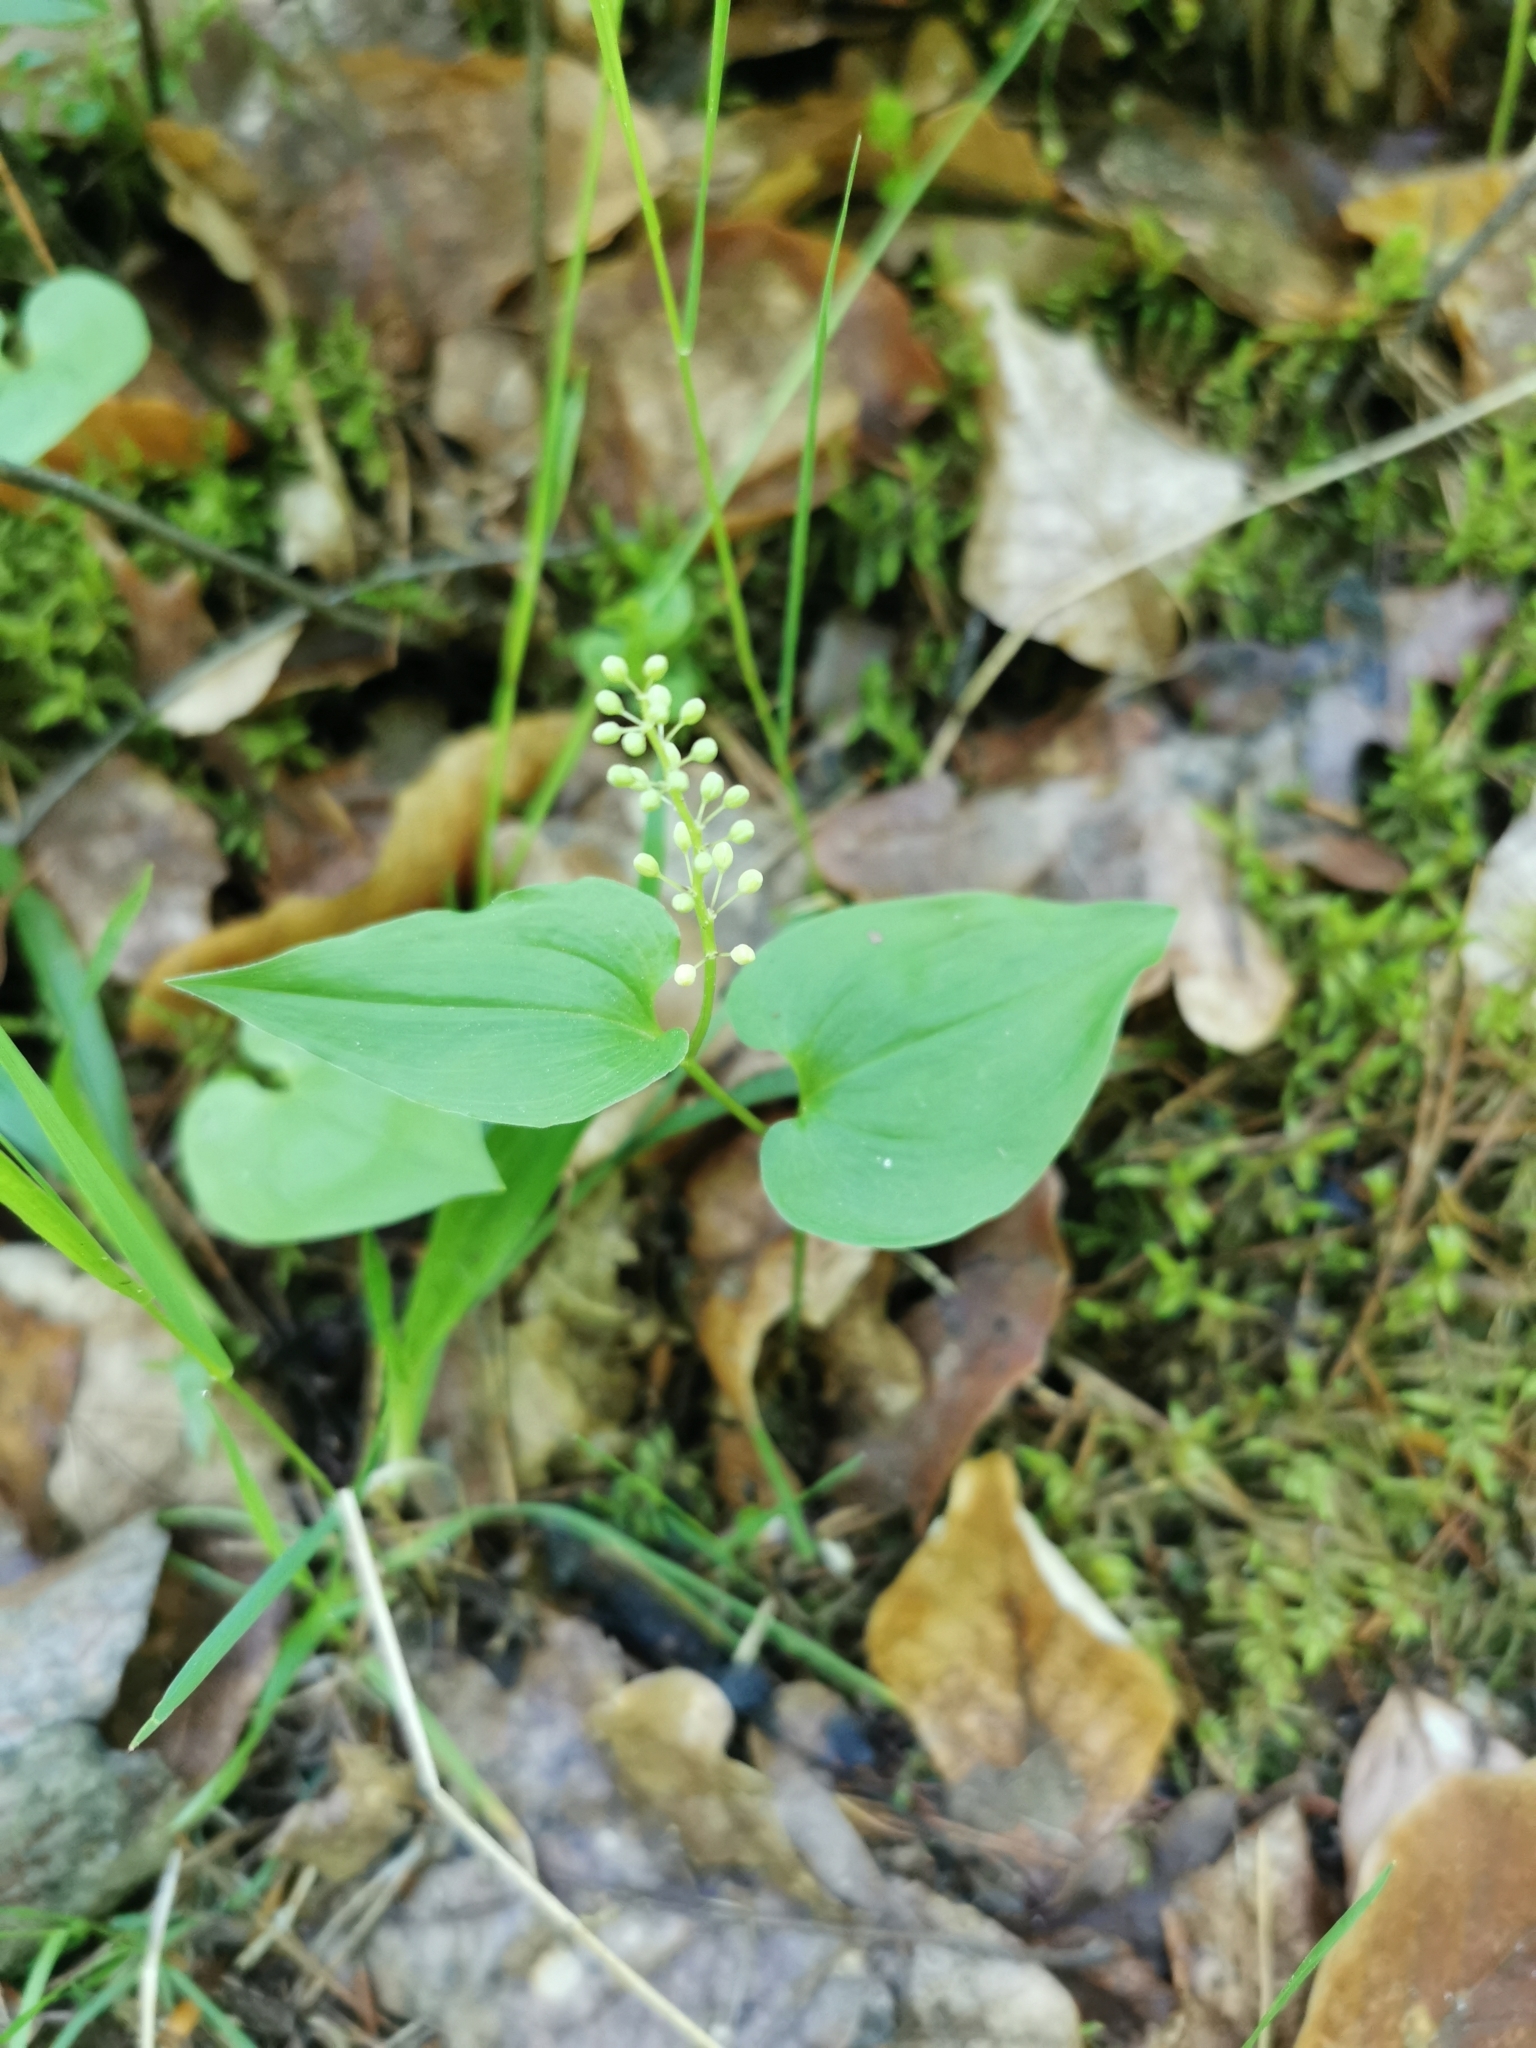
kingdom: Plantae
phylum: Tracheophyta
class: Liliopsida
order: Asparagales
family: Asparagaceae
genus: Maianthemum
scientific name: Maianthemum bifolium
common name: May lily
